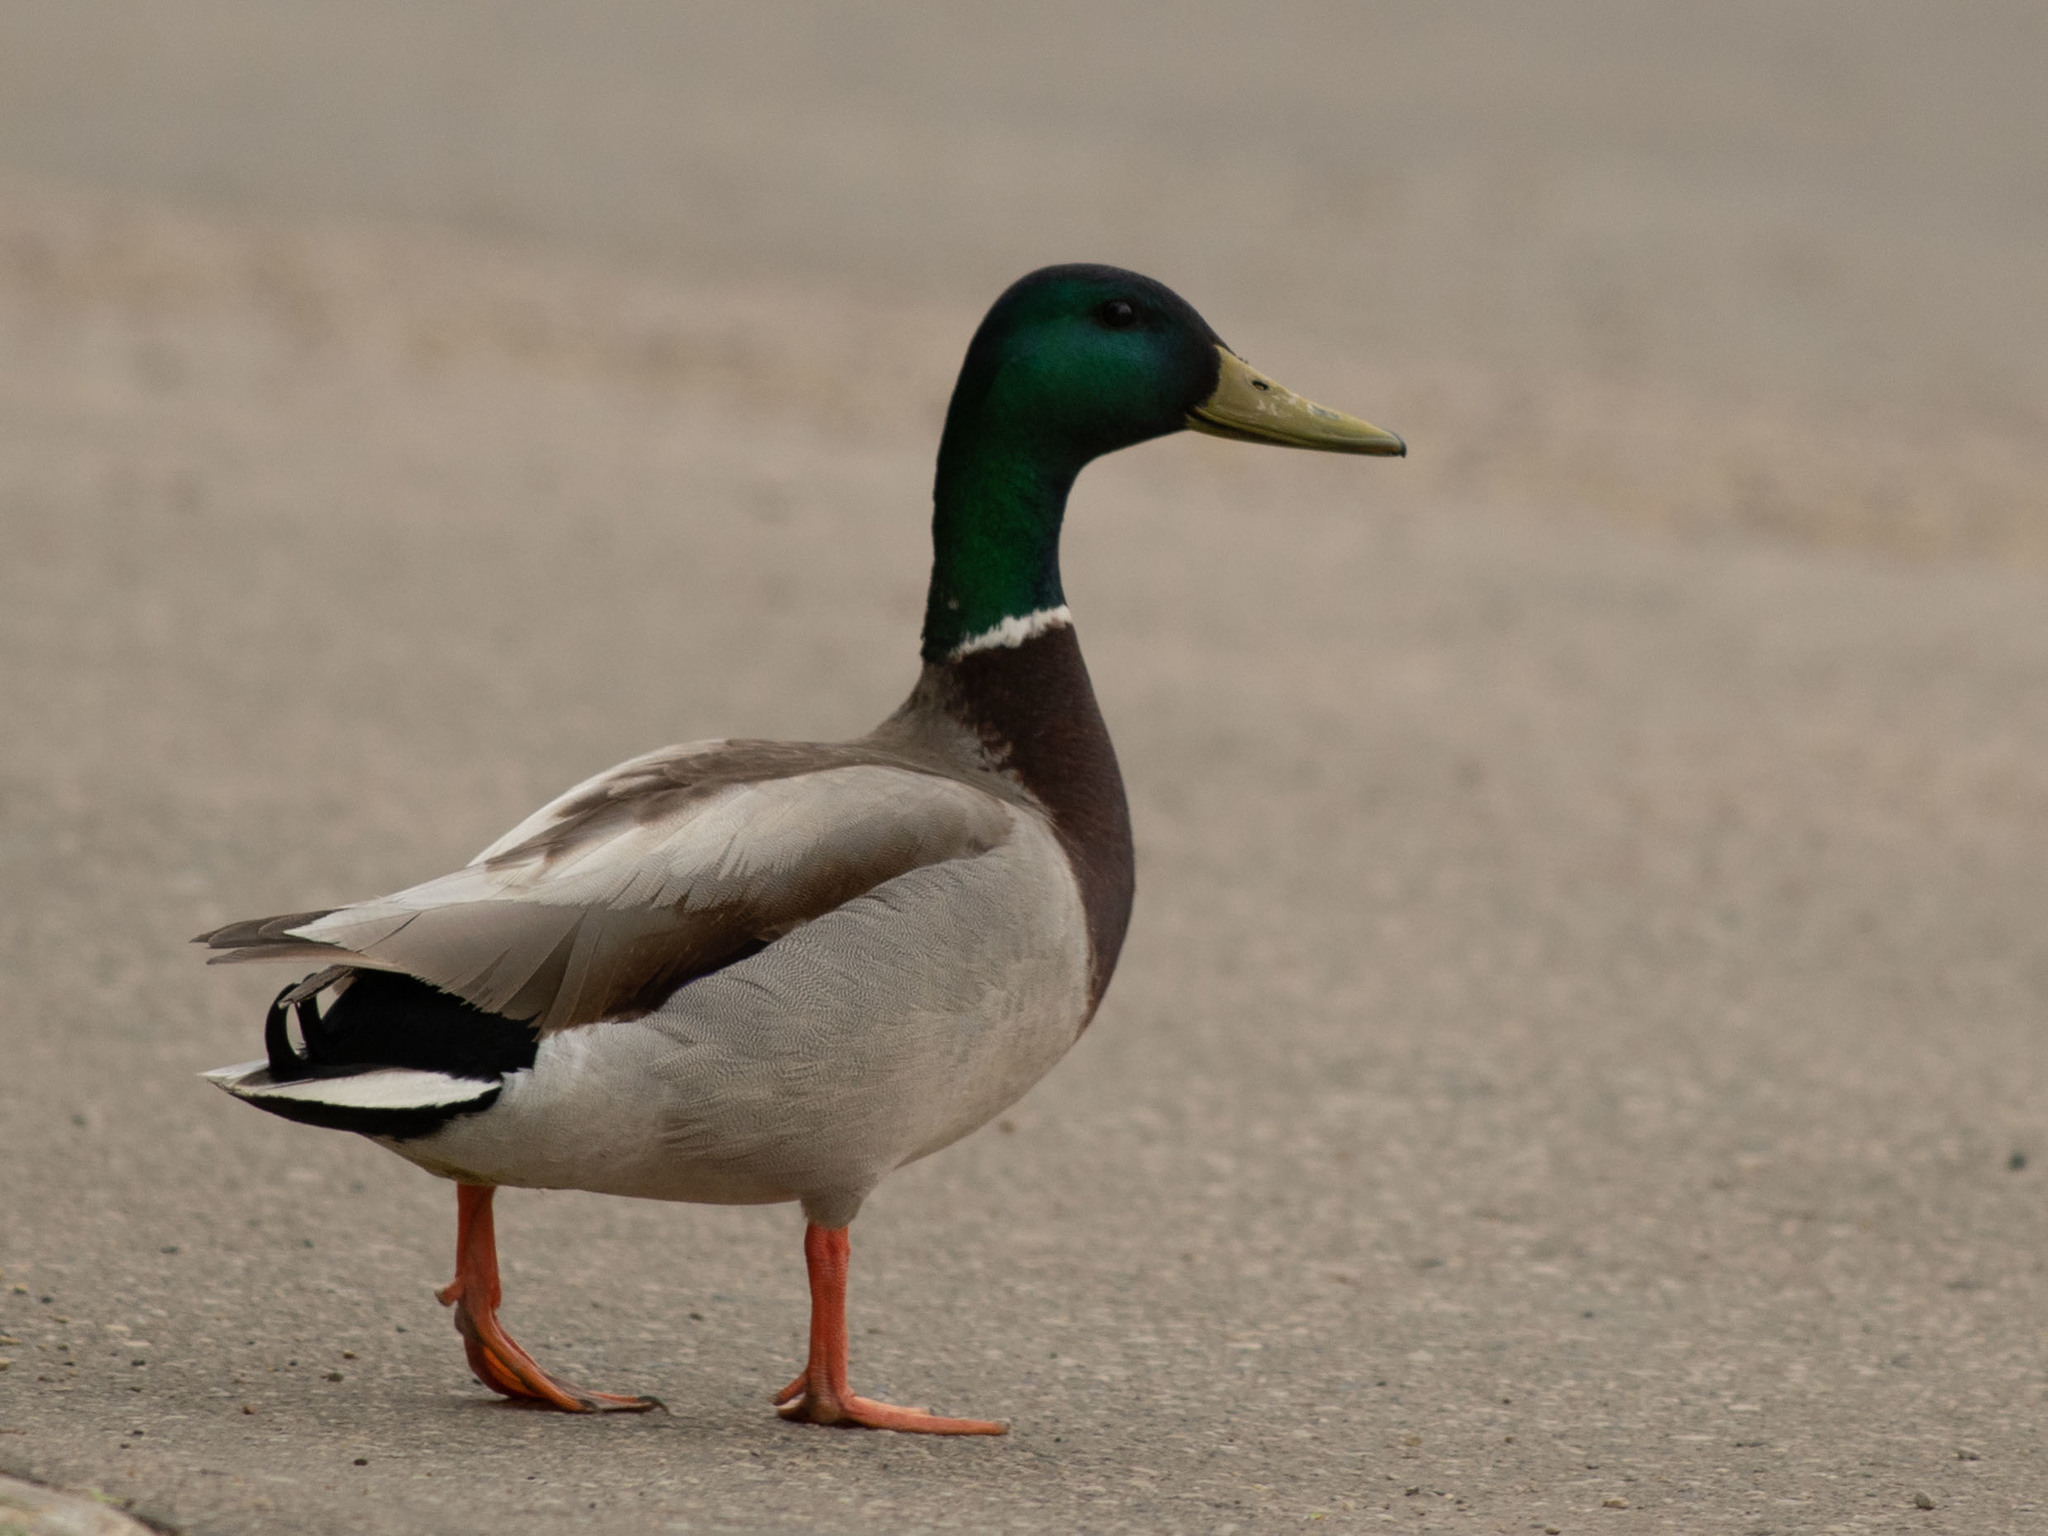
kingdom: Animalia
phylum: Chordata
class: Aves
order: Anseriformes
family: Anatidae
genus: Anas
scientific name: Anas platyrhynchos
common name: Mallard
